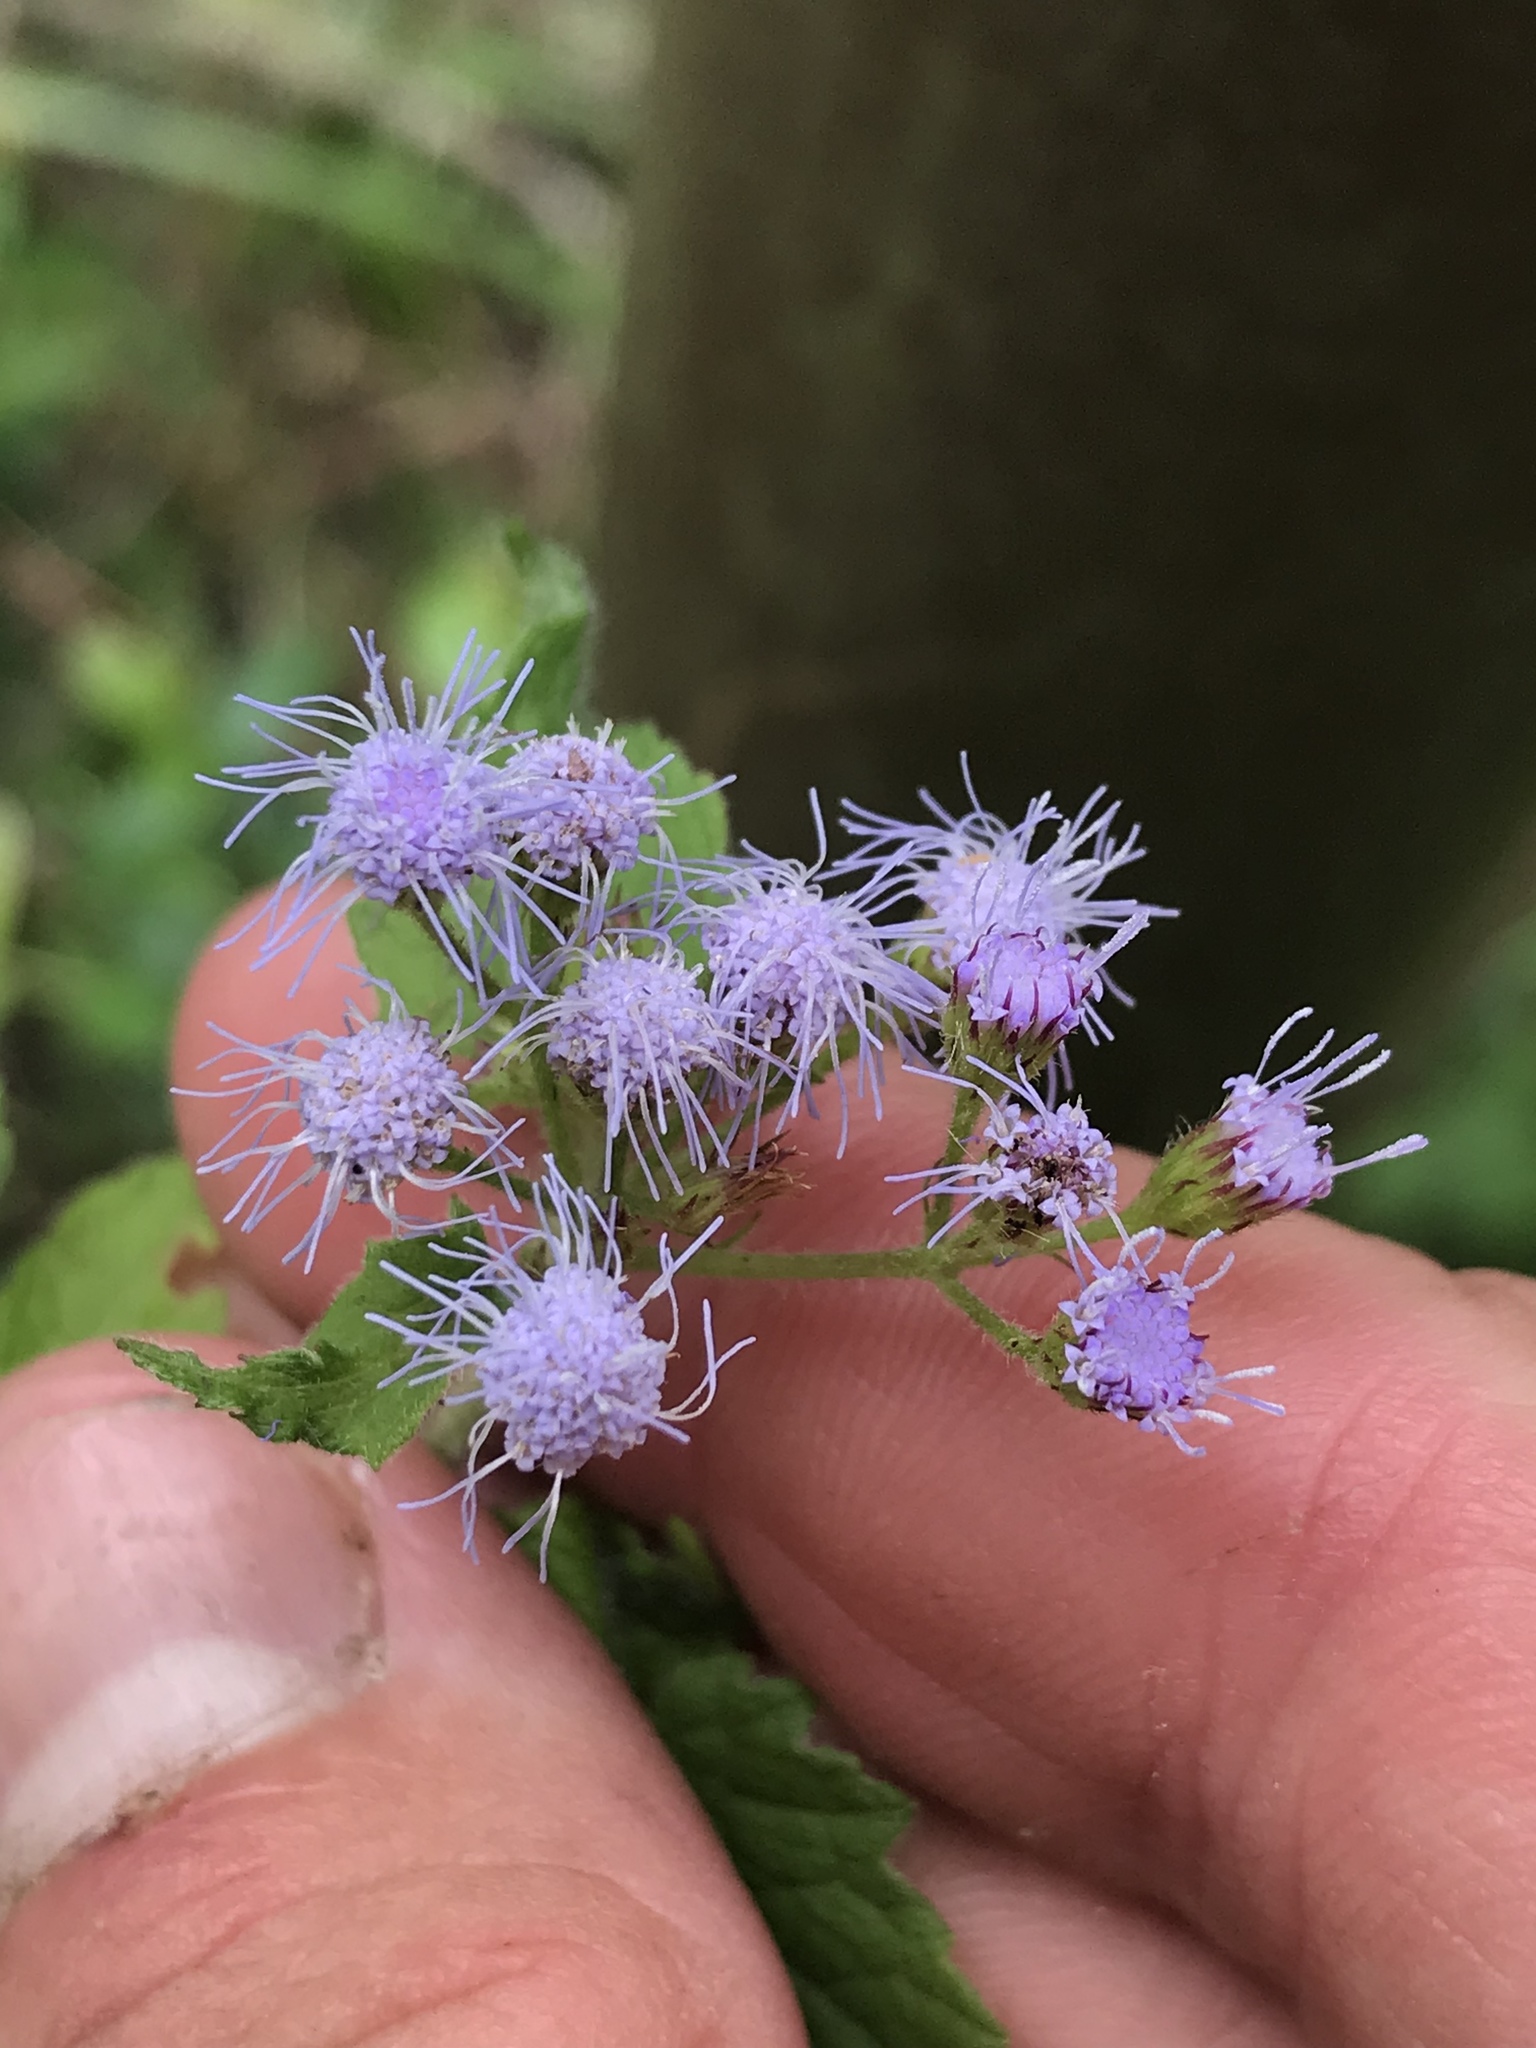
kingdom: Plantae
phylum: Tracheophyta
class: Magnoliopsida
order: Asterales
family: Asteraceae
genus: Conoclinium
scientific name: Conoclinium coelestinum
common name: Blue mistflower
